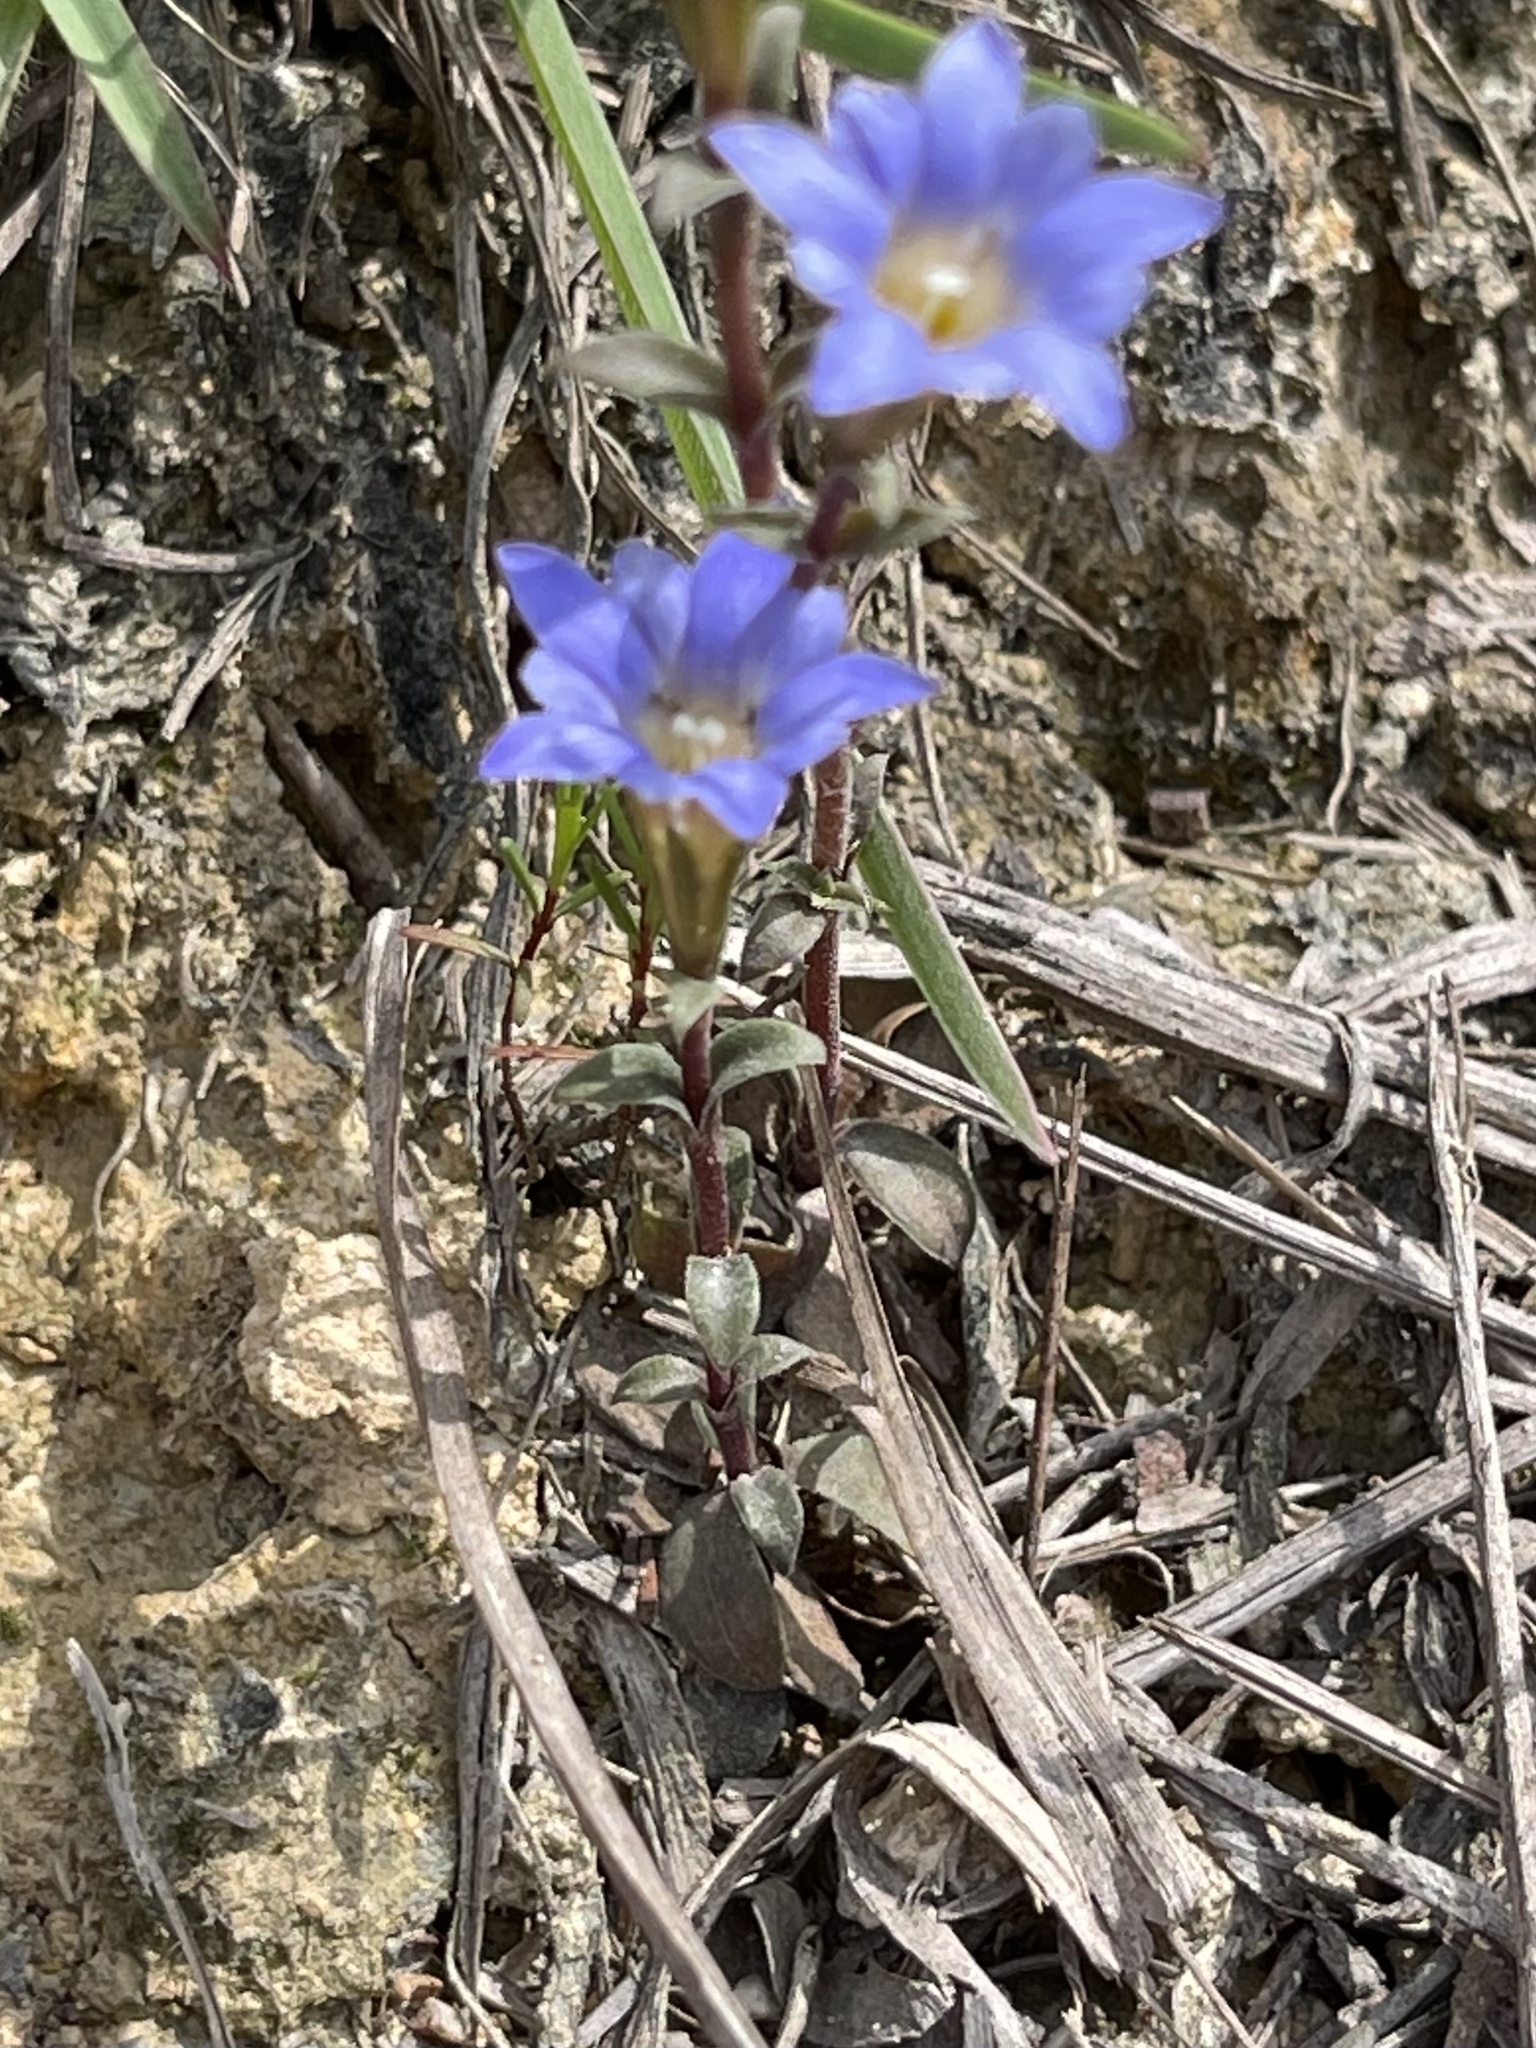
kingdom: Plantae
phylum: Tracheophyta
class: Magnoliopsida
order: Gentianales
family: Gentianaceae
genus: Gentiana
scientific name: Gentiana loureiroi
